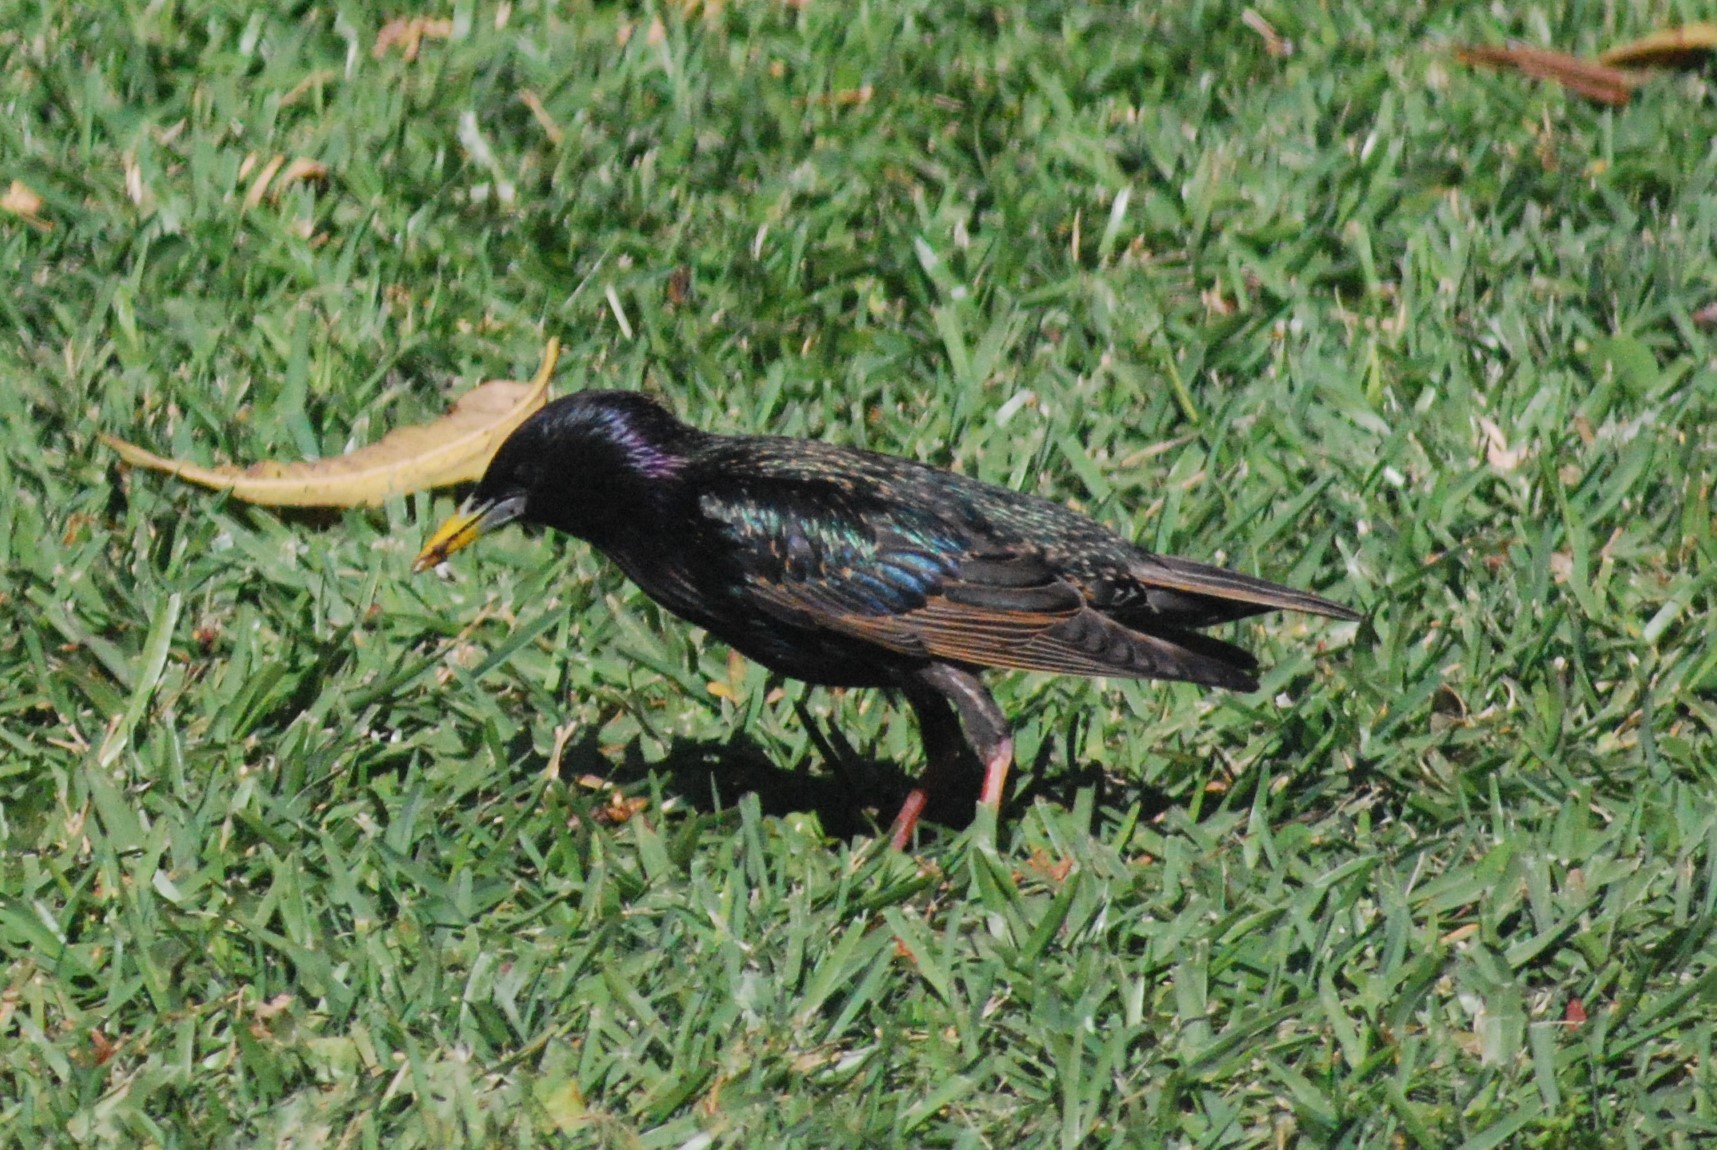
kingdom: Animalia
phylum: Chordata
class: Aves
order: Passeriformes
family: Sturnidae
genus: Sturnus
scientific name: Sturnus vulgaris
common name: Common starling
